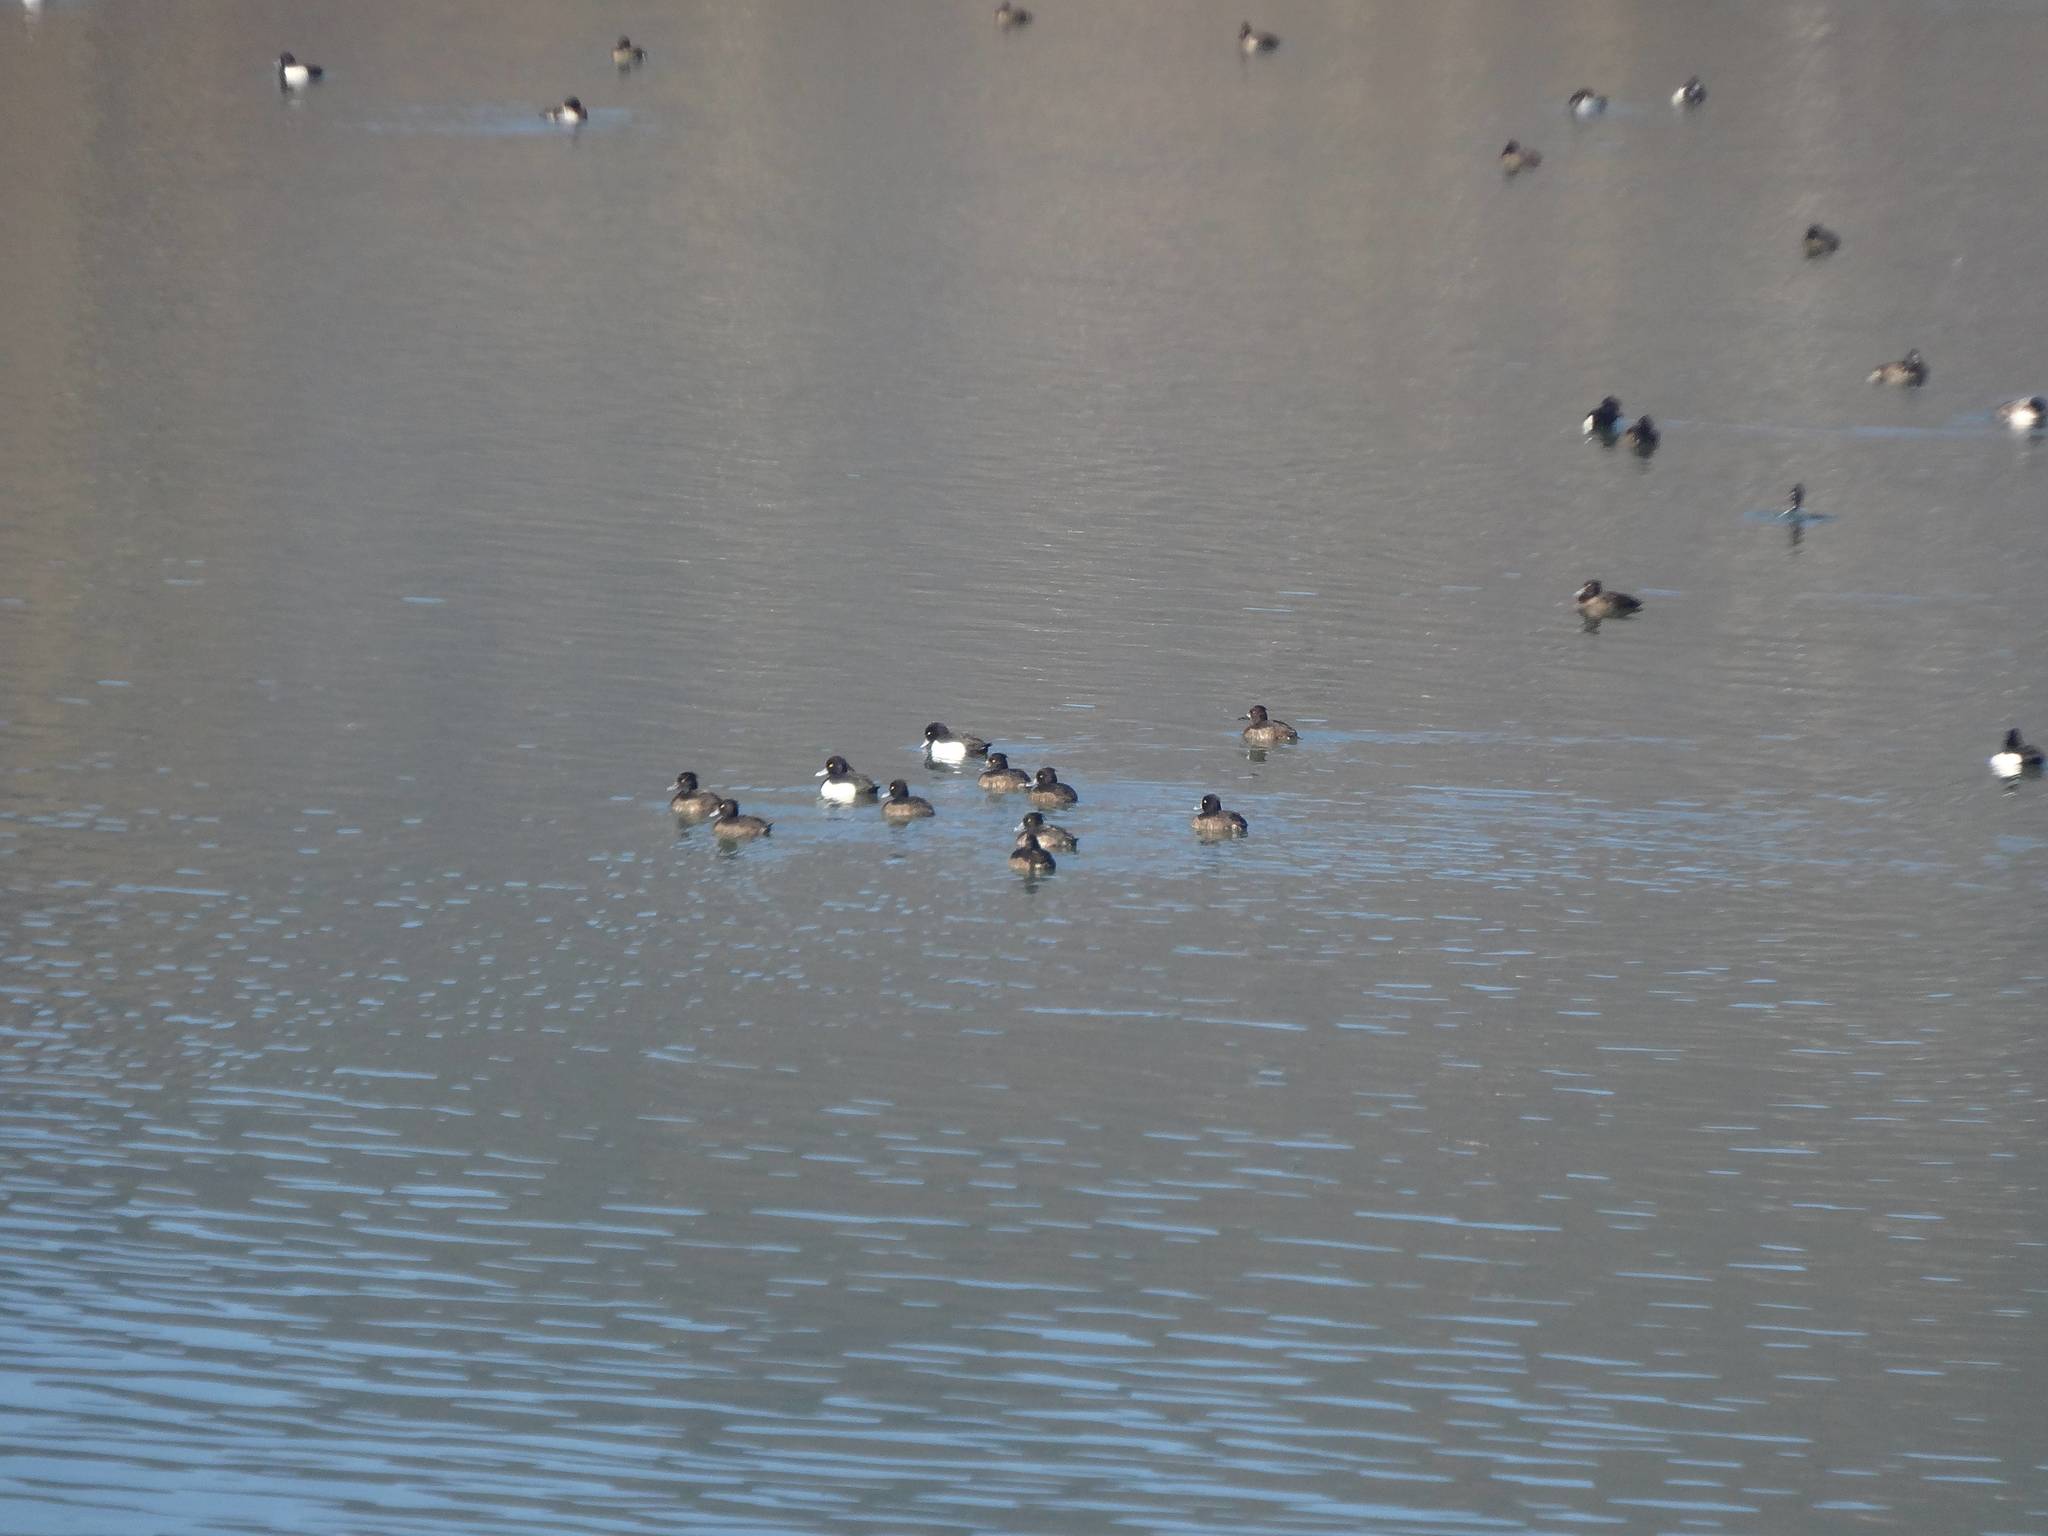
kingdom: Animalia
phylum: Chordata
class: Aves
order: Anseriformes
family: Anatidae
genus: Aythya
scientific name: Aythya fuligula
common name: Tufted duck
